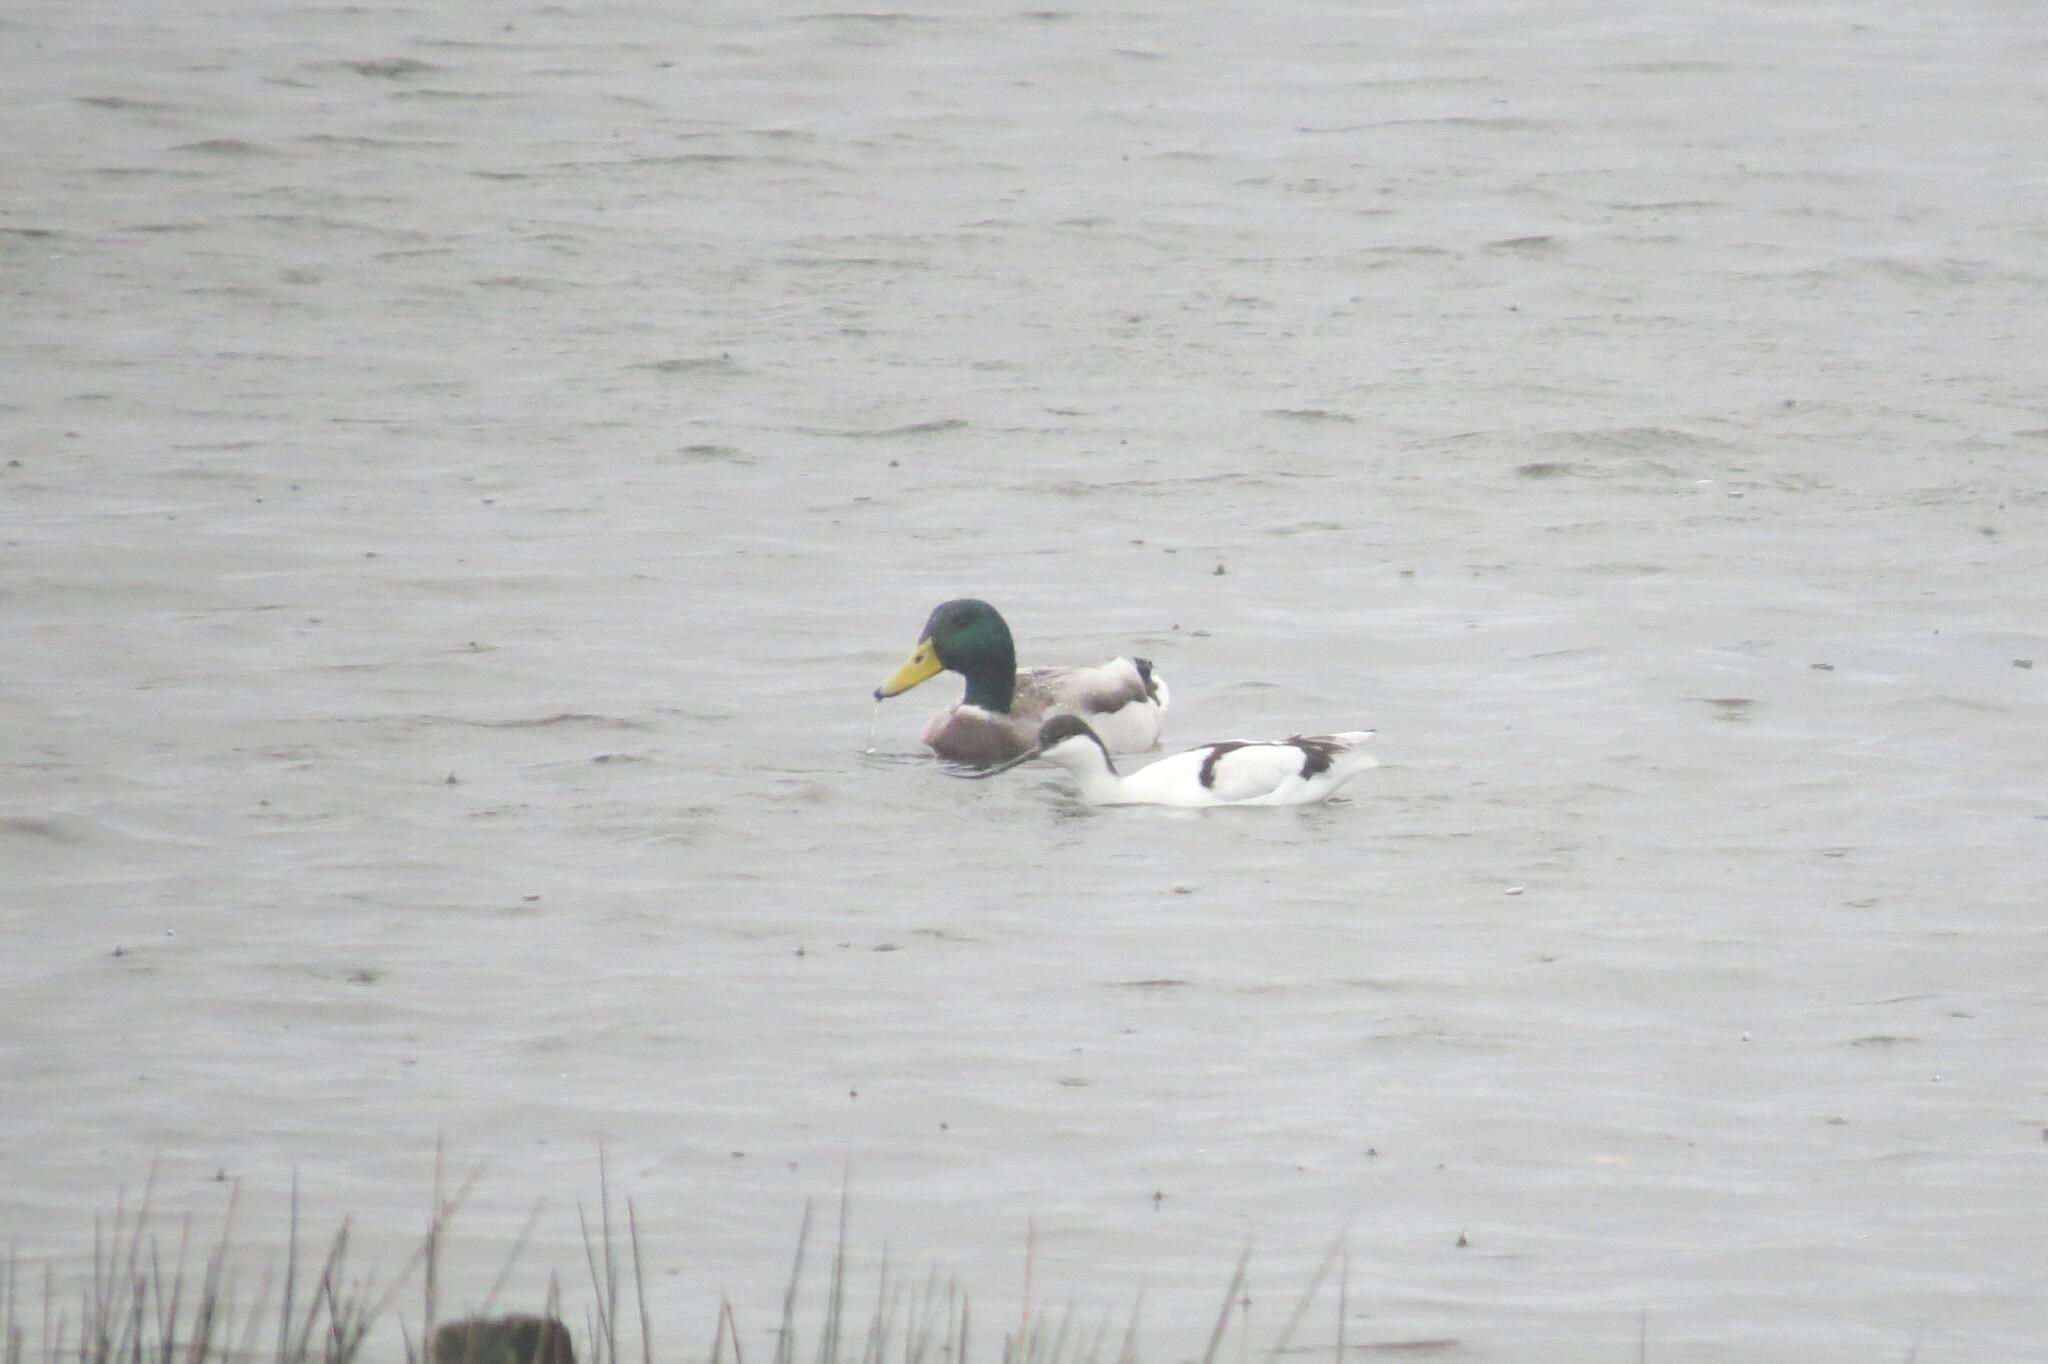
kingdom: Animalia
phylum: Chordata
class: Aves
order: Charadriiformes
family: Recurvirostridae
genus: Recurvirostra
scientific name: Recurvirostra avosetta
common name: Pied avocet
